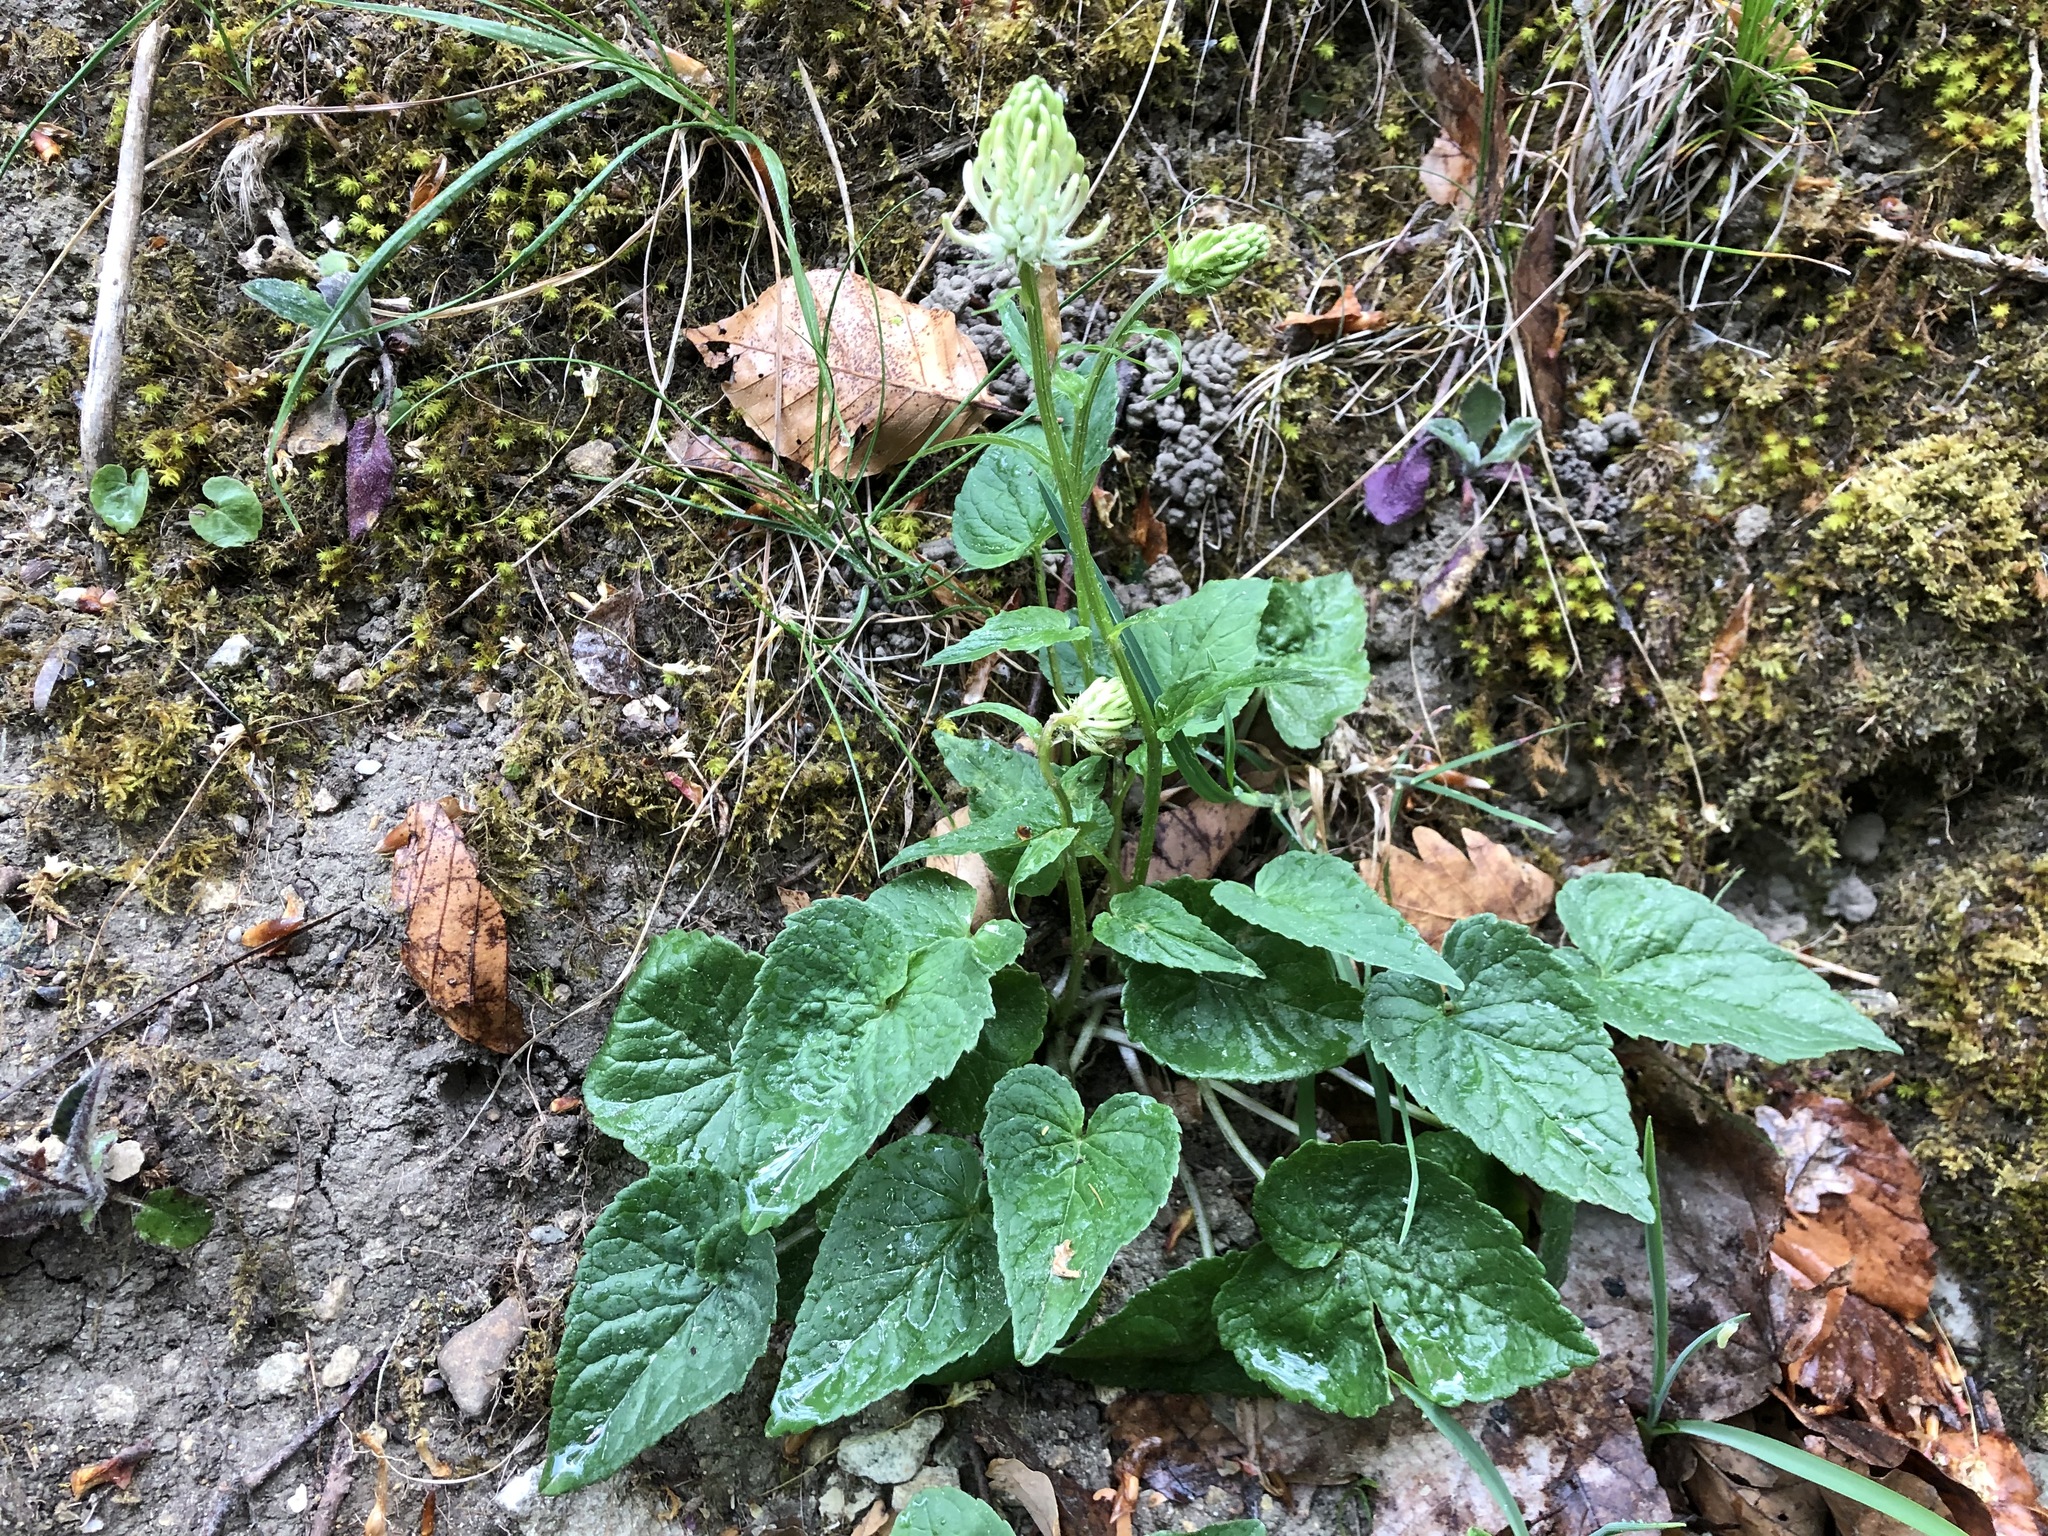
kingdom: Plantae
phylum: Tracheophyta
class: Magnoliopsida
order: Asterales
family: Campanulaceae
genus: Phyteuma
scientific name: Phyteuma spicatum
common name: Spiked rampion
